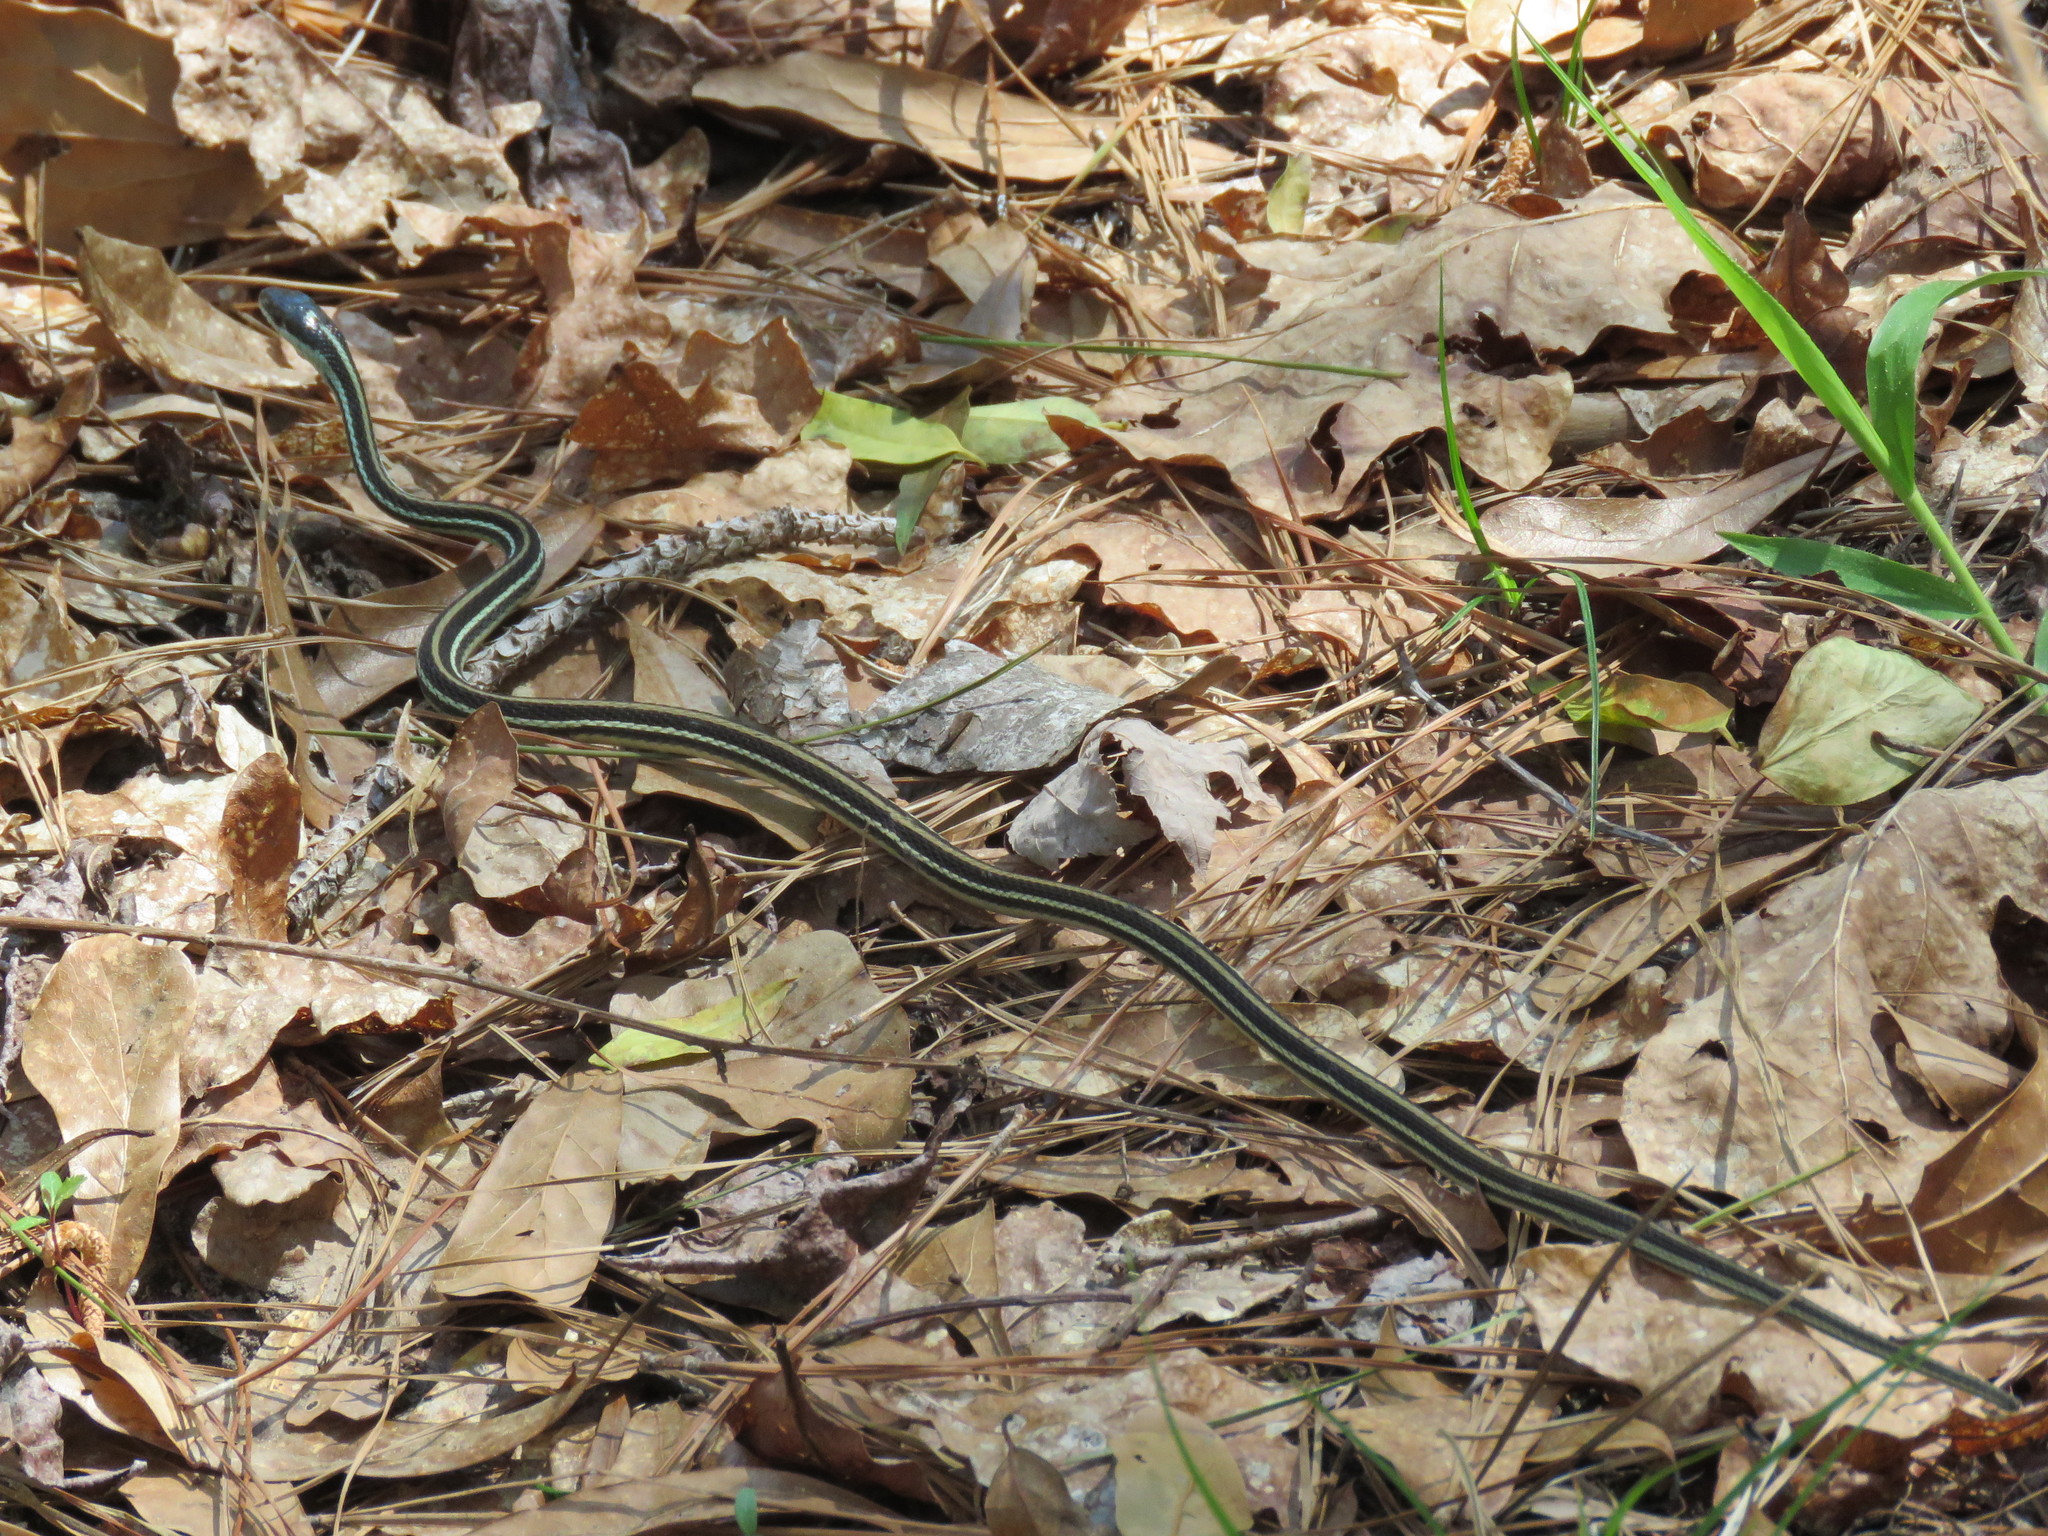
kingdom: Animalia
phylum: Chordata
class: Squamata
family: Colubridae
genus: Thamnophis
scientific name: Thamnophis proximus
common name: Western ribbon snake
